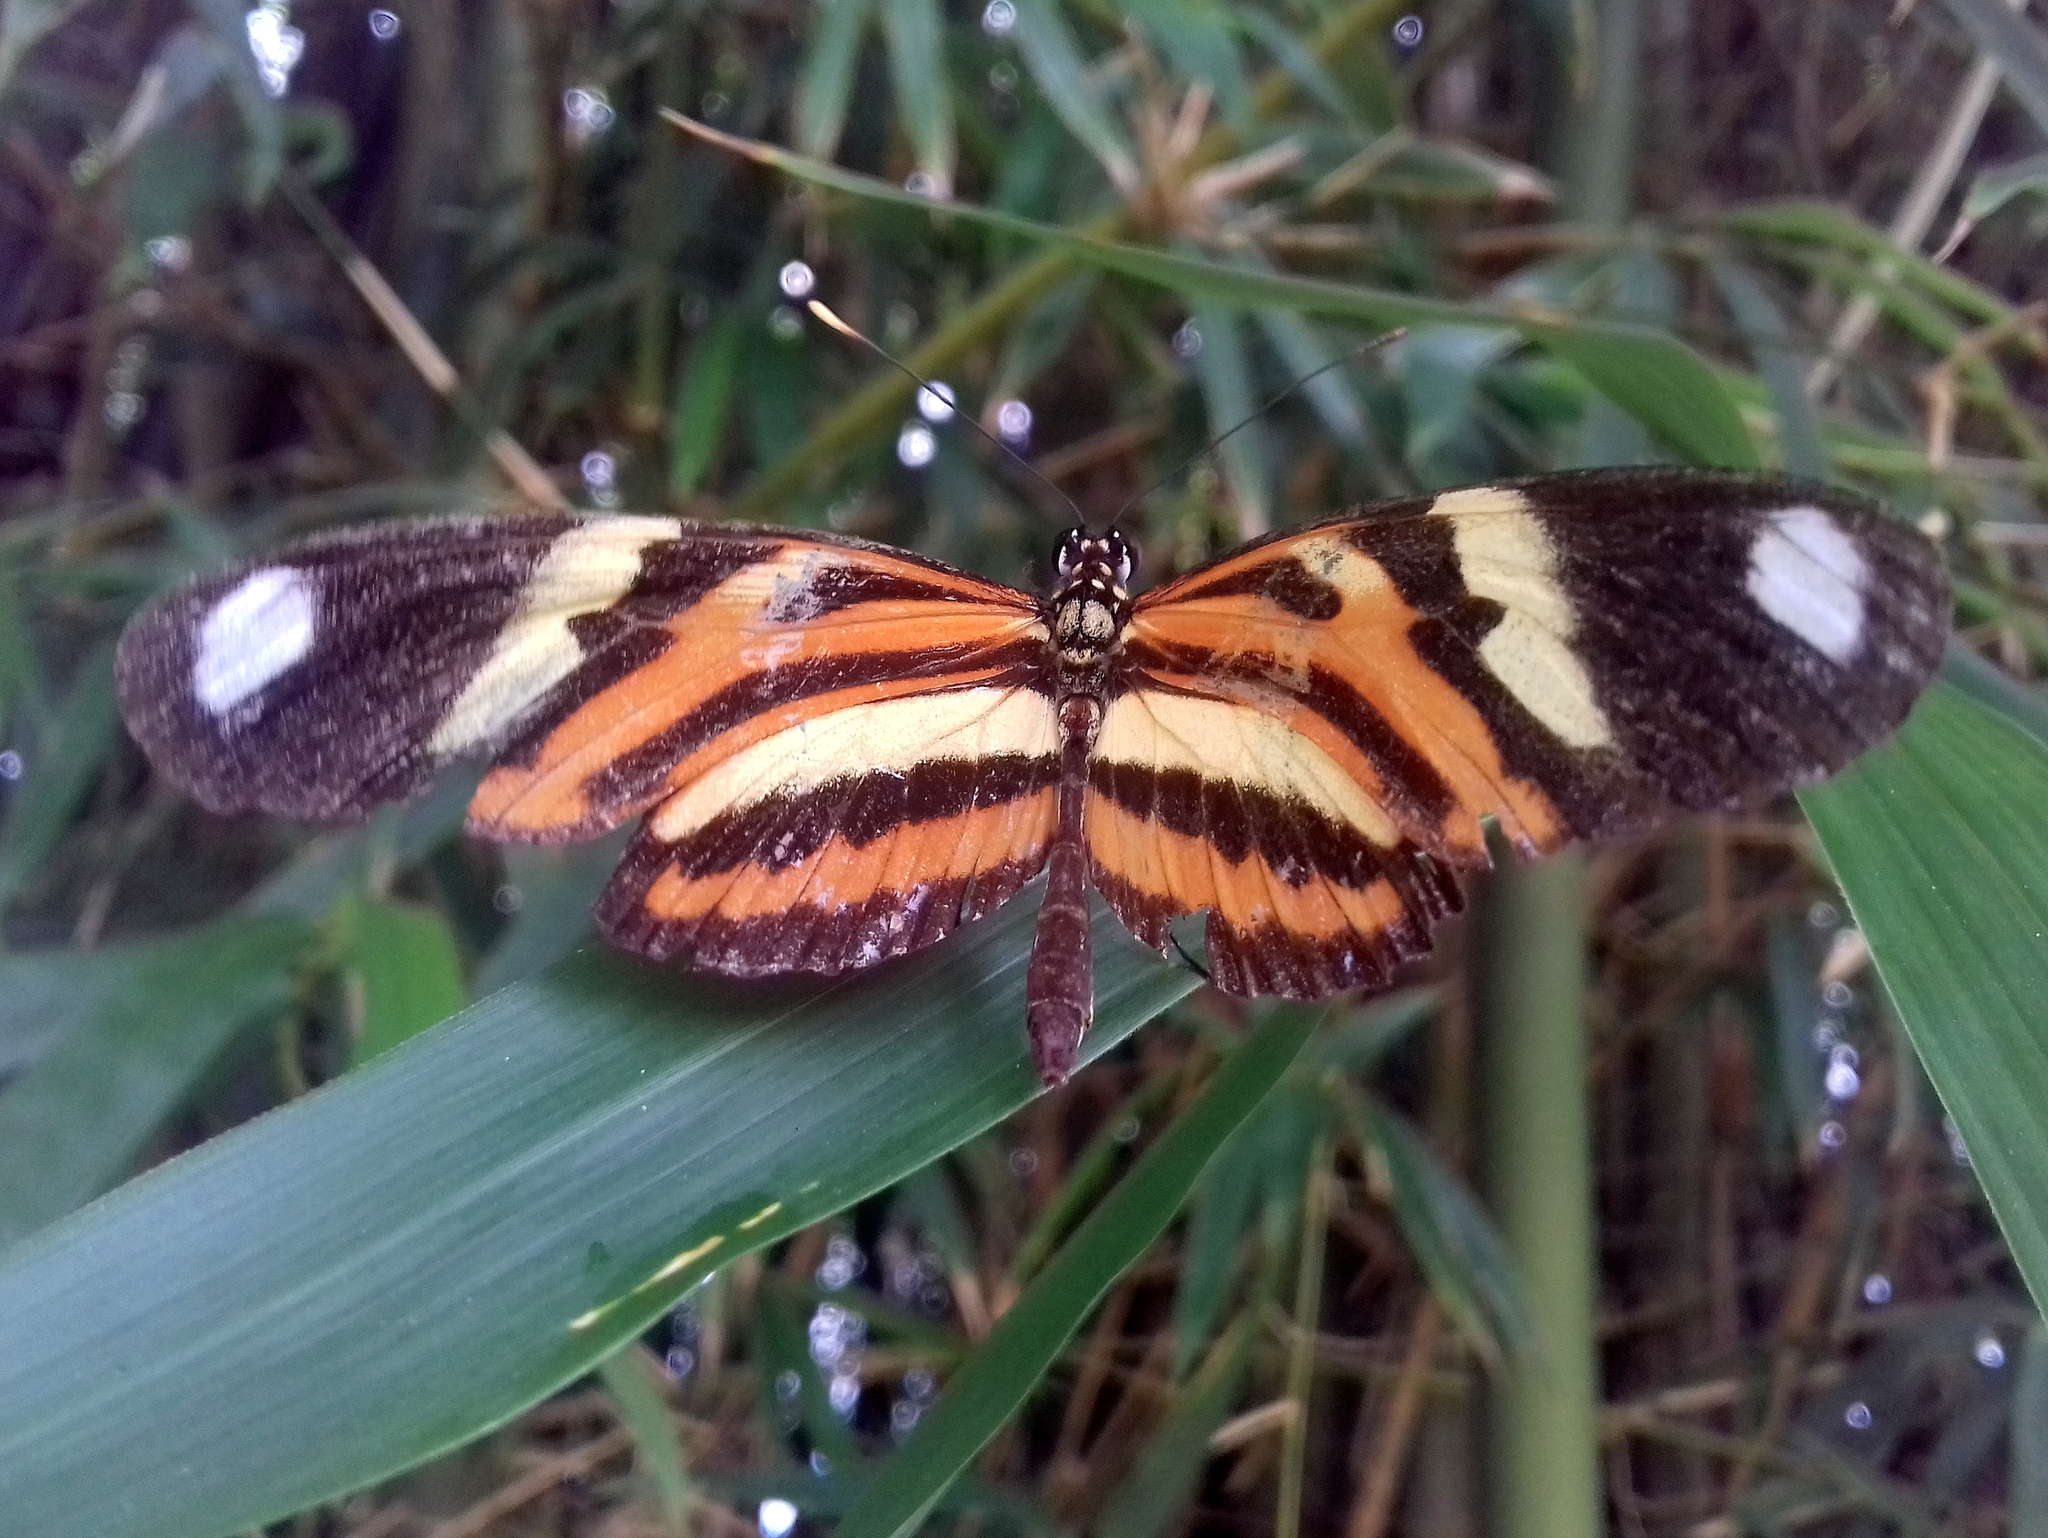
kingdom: Animalia
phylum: Arthropoda
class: Insecta
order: Lepidoptera
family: Nymphalidae
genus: Heliconius
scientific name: Heliconius ethilla
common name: Ethilia longwing
